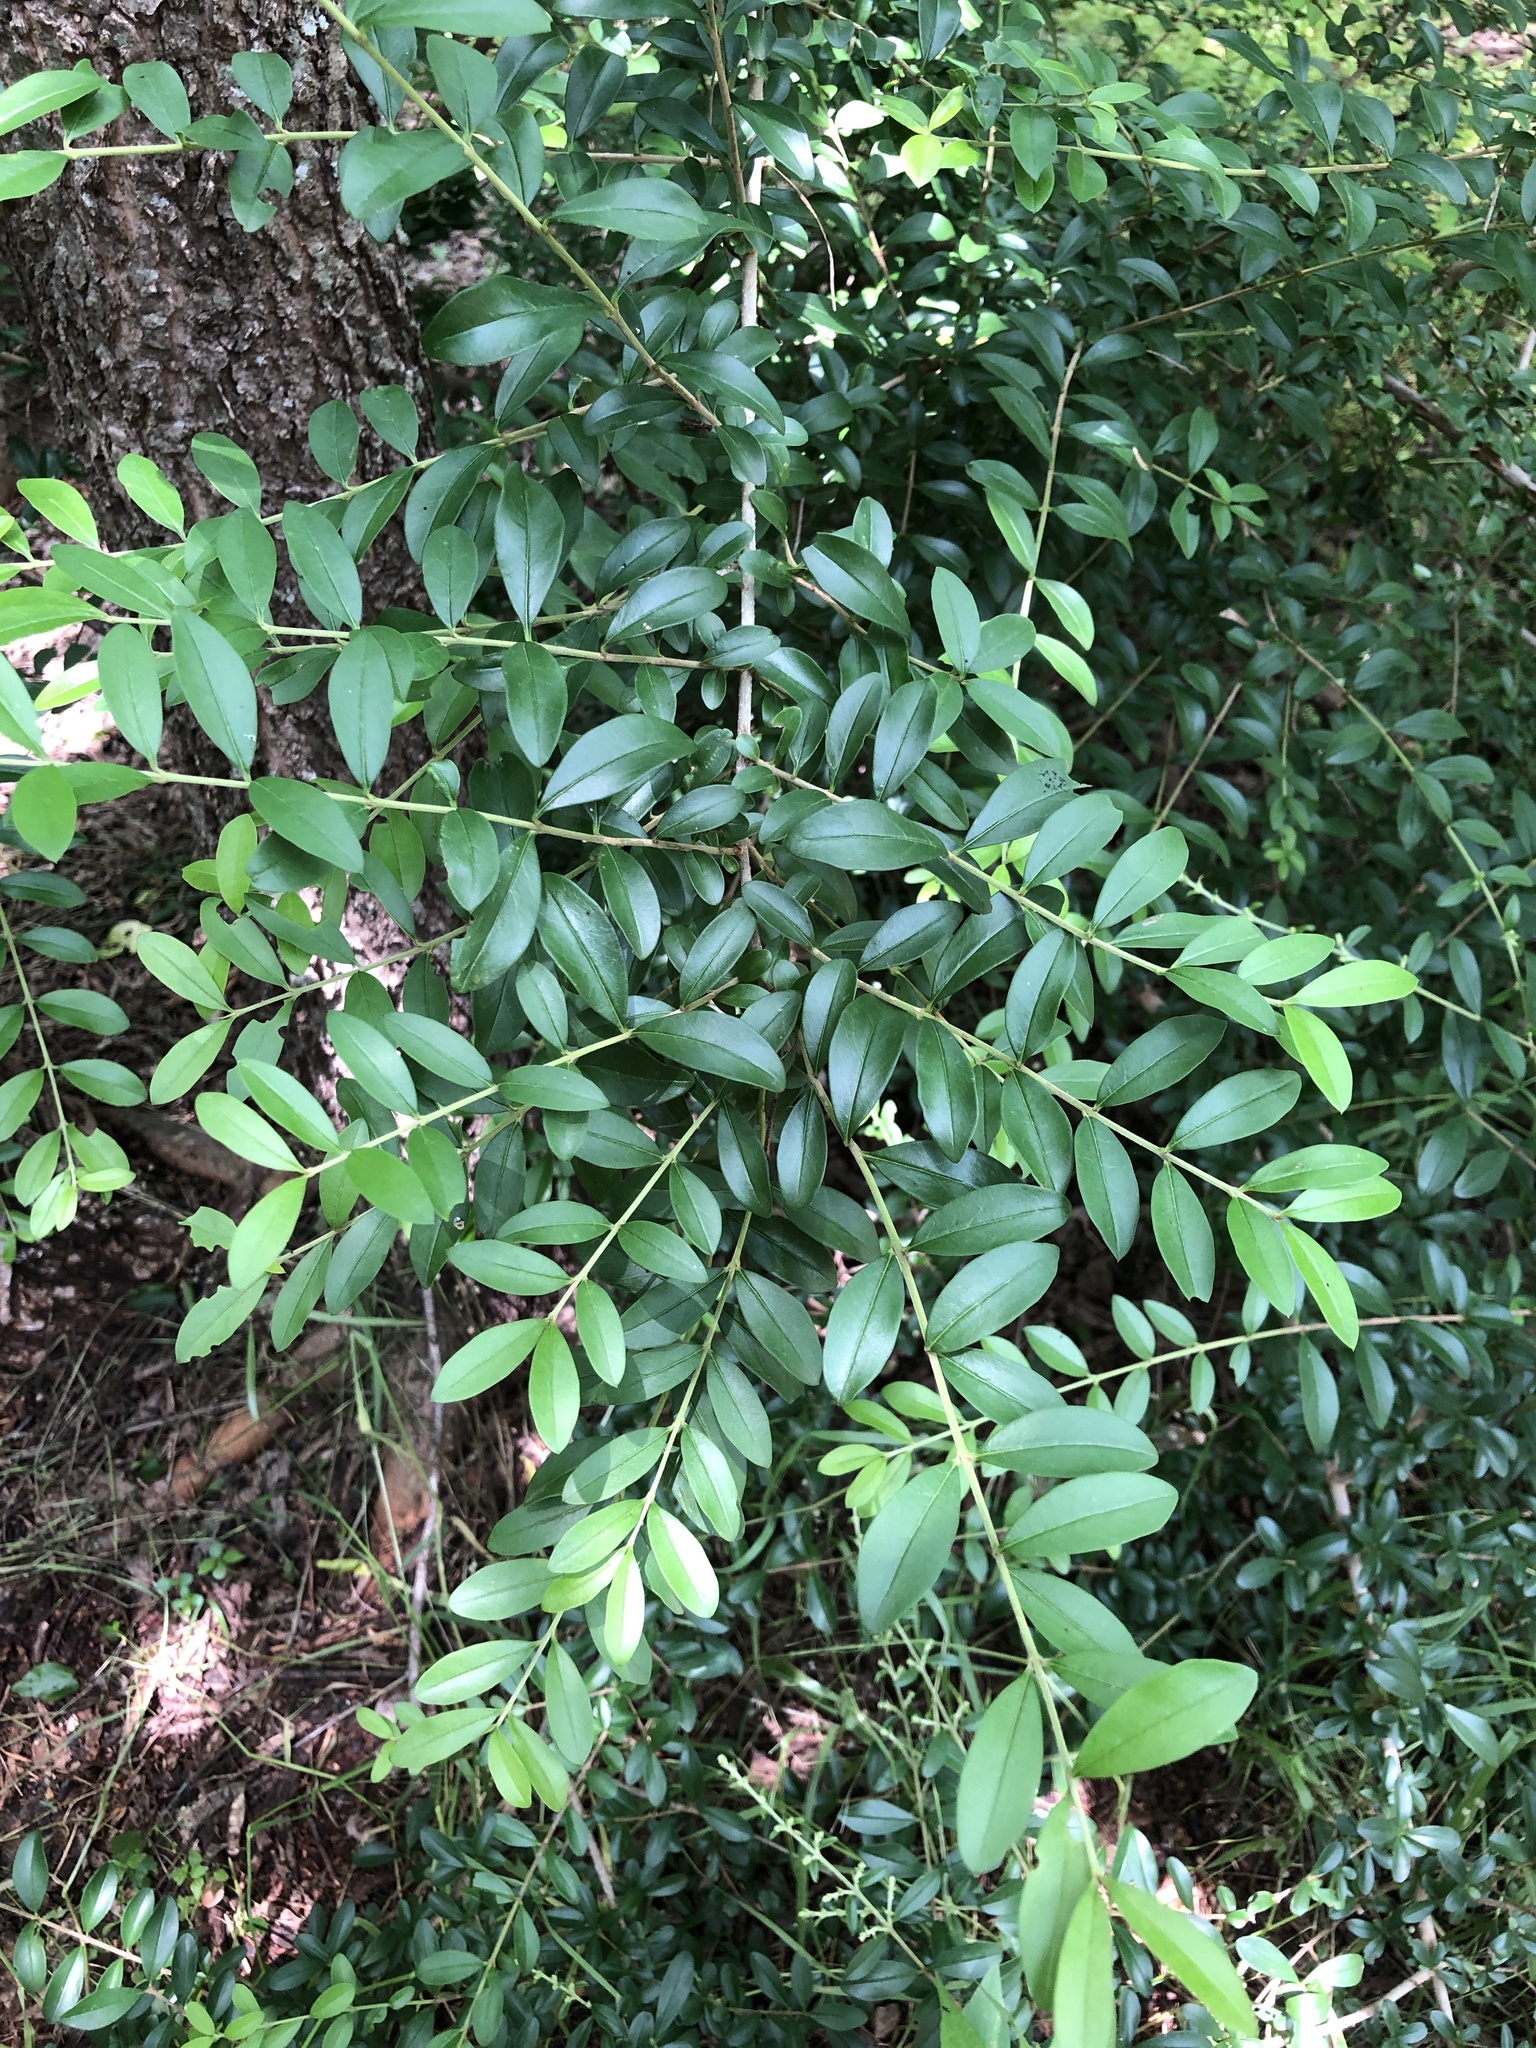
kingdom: Plantae
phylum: Tracheophyta
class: Magnoliopsida
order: Lamiales
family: Oleaceae
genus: Ligustrum
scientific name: Ligustrum
